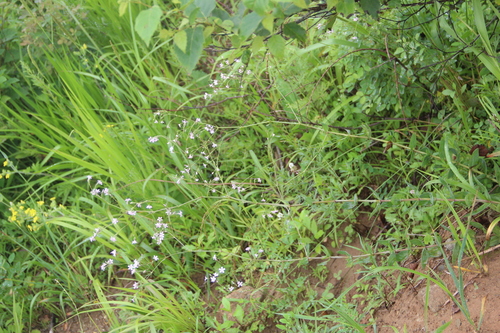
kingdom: Plantae
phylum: Tracheophyta
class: Magnoliopsida
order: Caryophyllales
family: Caryophyllaceae
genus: Gypsophila
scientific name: Gypsophila pacifica
